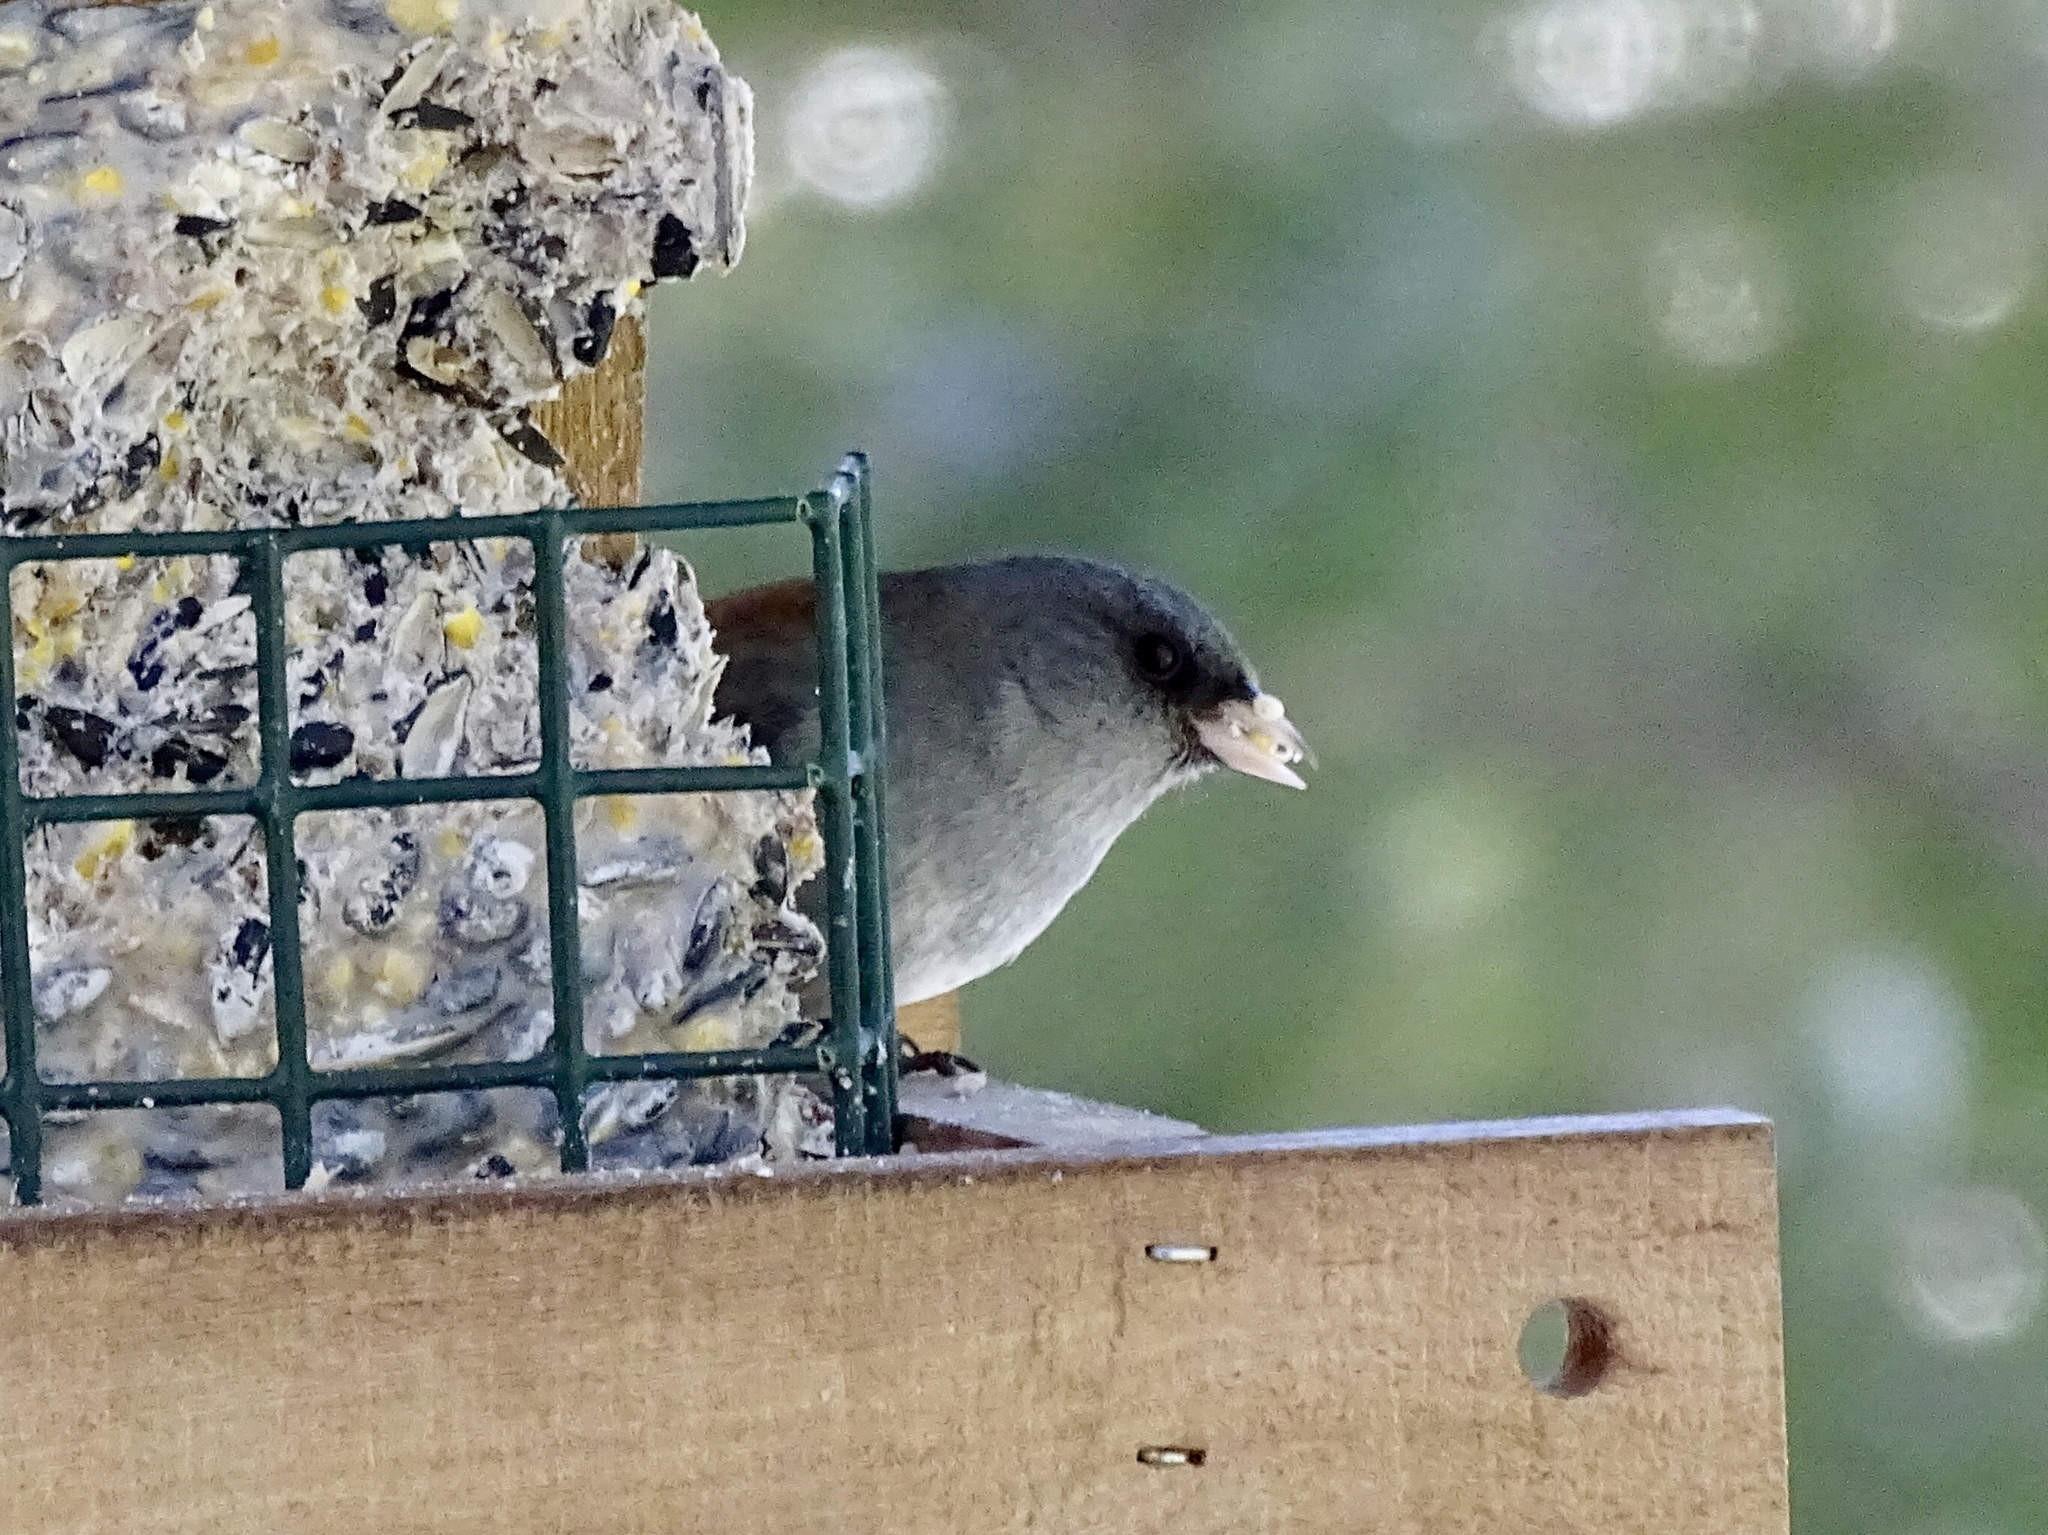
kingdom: Animalia
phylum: Chordata
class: Aves
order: Passeriformes
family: Passerellidae
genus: Junco
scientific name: Junco hyemalis
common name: Dark-eyed junco
